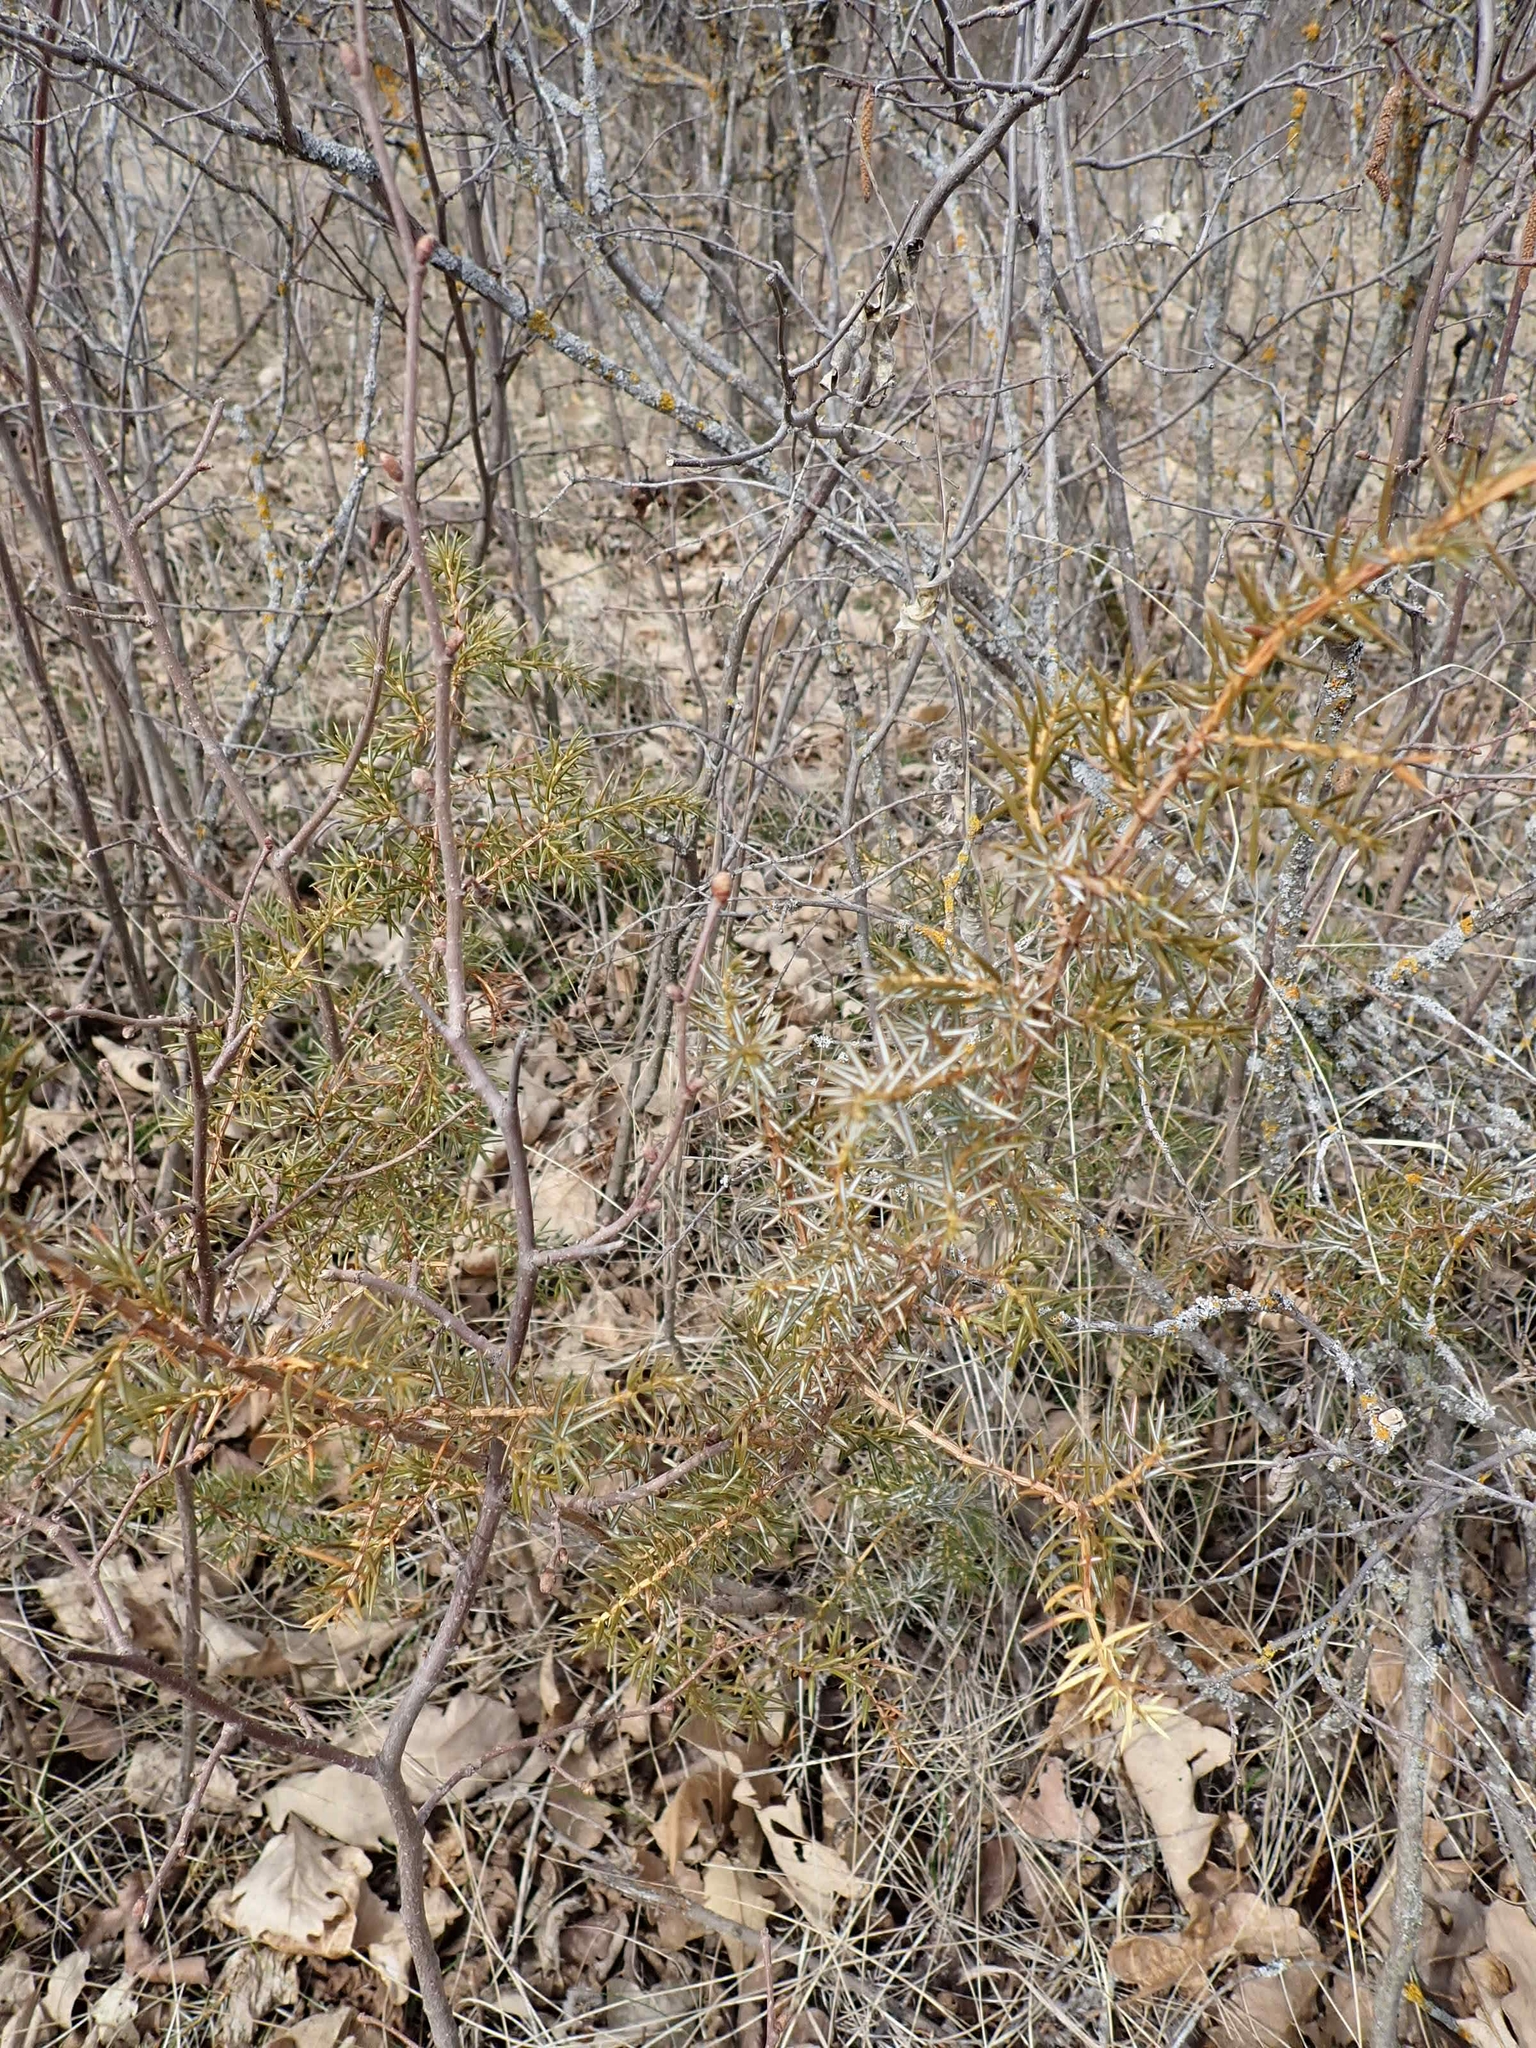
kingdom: Plantae
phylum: Tracheophyta
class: Pinopsida
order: Pinales
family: Cupressaceae
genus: Juniperus
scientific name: Juniperus communis
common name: Common juniper
